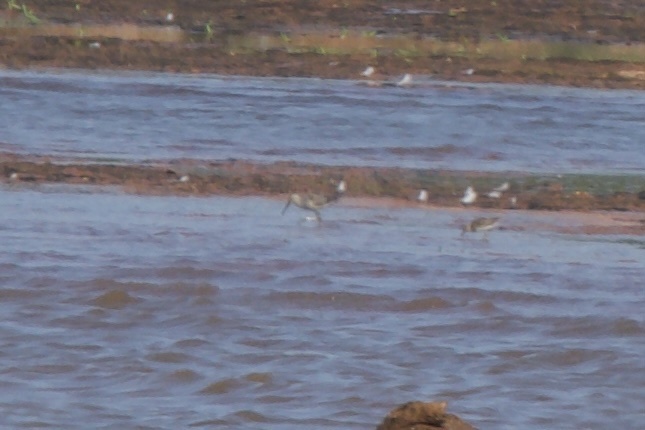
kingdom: Animalia
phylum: Chordata
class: Aves
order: Charadriiformes
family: Scolopacidae
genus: Limnodromus
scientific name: Limnodromus
